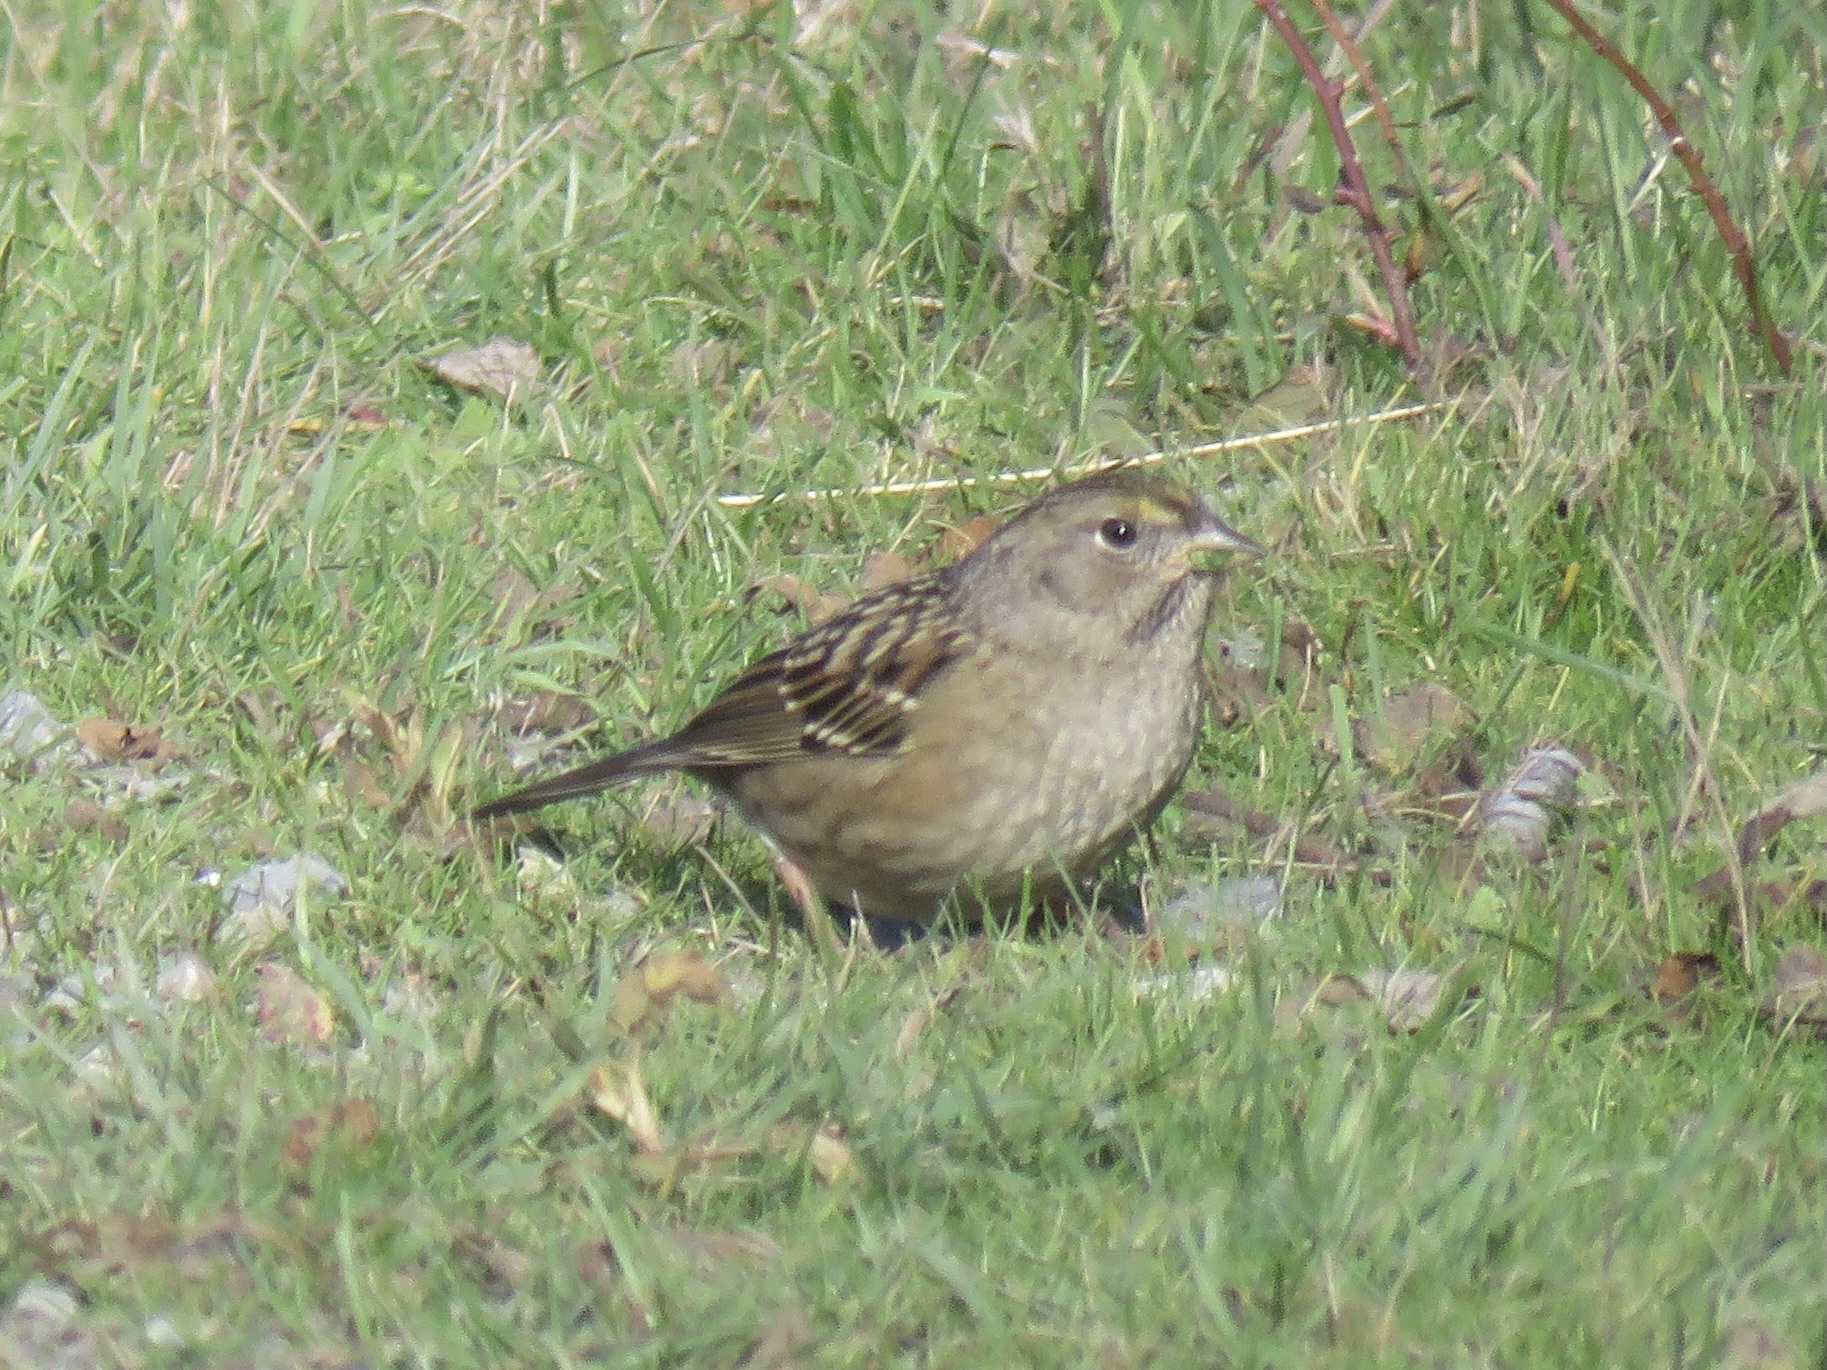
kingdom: Animalia
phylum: Chordata
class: Aves
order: Passeriformes
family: Passerellidae
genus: Zonotrichia
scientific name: Zonotrichia atricapilla
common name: Golden-crowned sparrow
